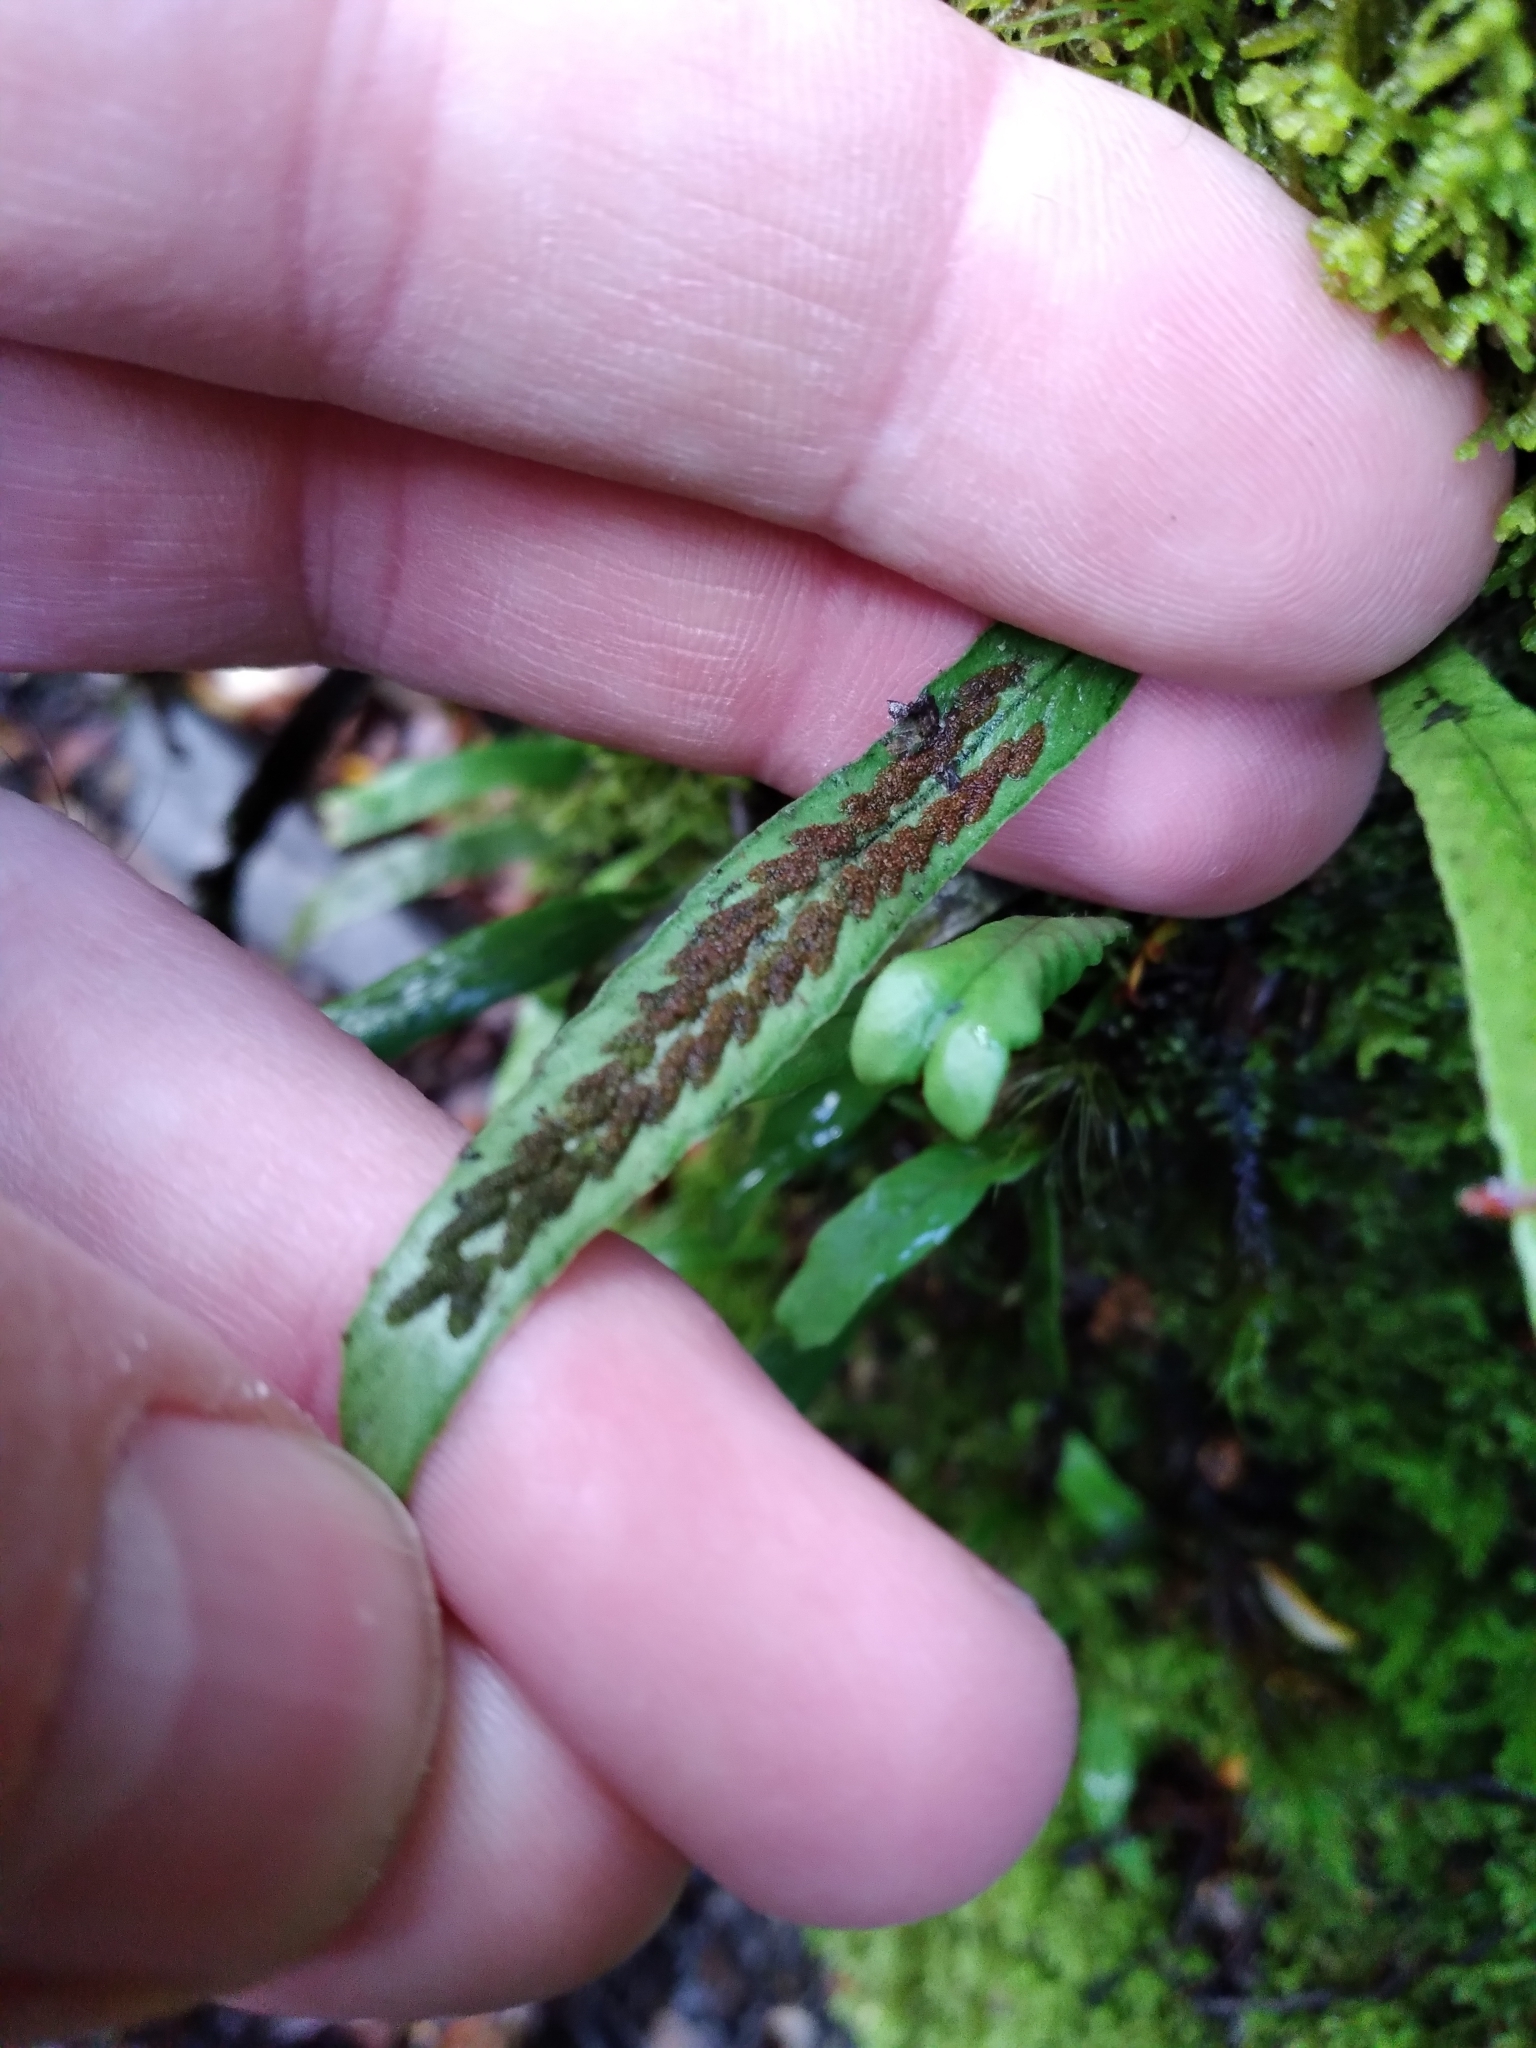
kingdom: Plantae
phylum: Tracheophyta
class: Polypodiopsida
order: Polypodiales
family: Polypodiaceae
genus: Notogrammitis
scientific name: Notogrammitis billardierei
